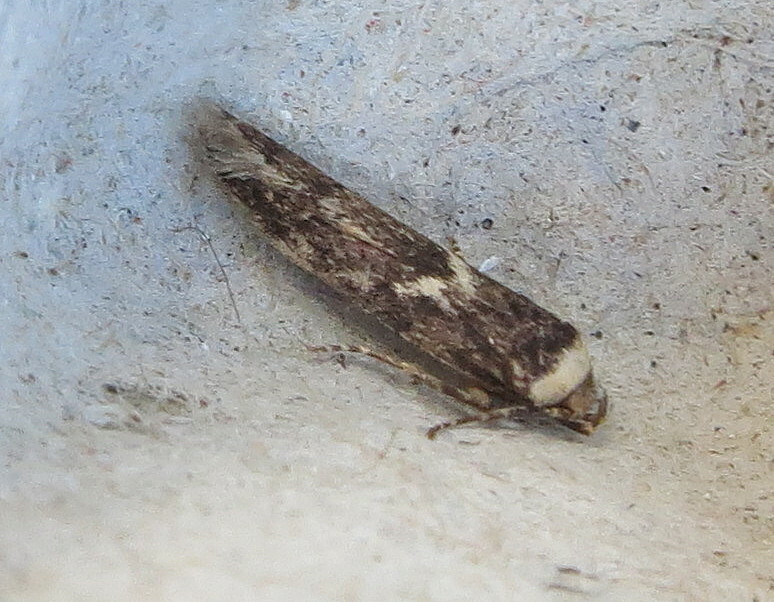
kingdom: Animalia
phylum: Arthropoda
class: Insecta
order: Lepidoptera
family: Blastobasidae
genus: Blastobasis
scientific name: Blastobasis adustella
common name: Dingy dowd
